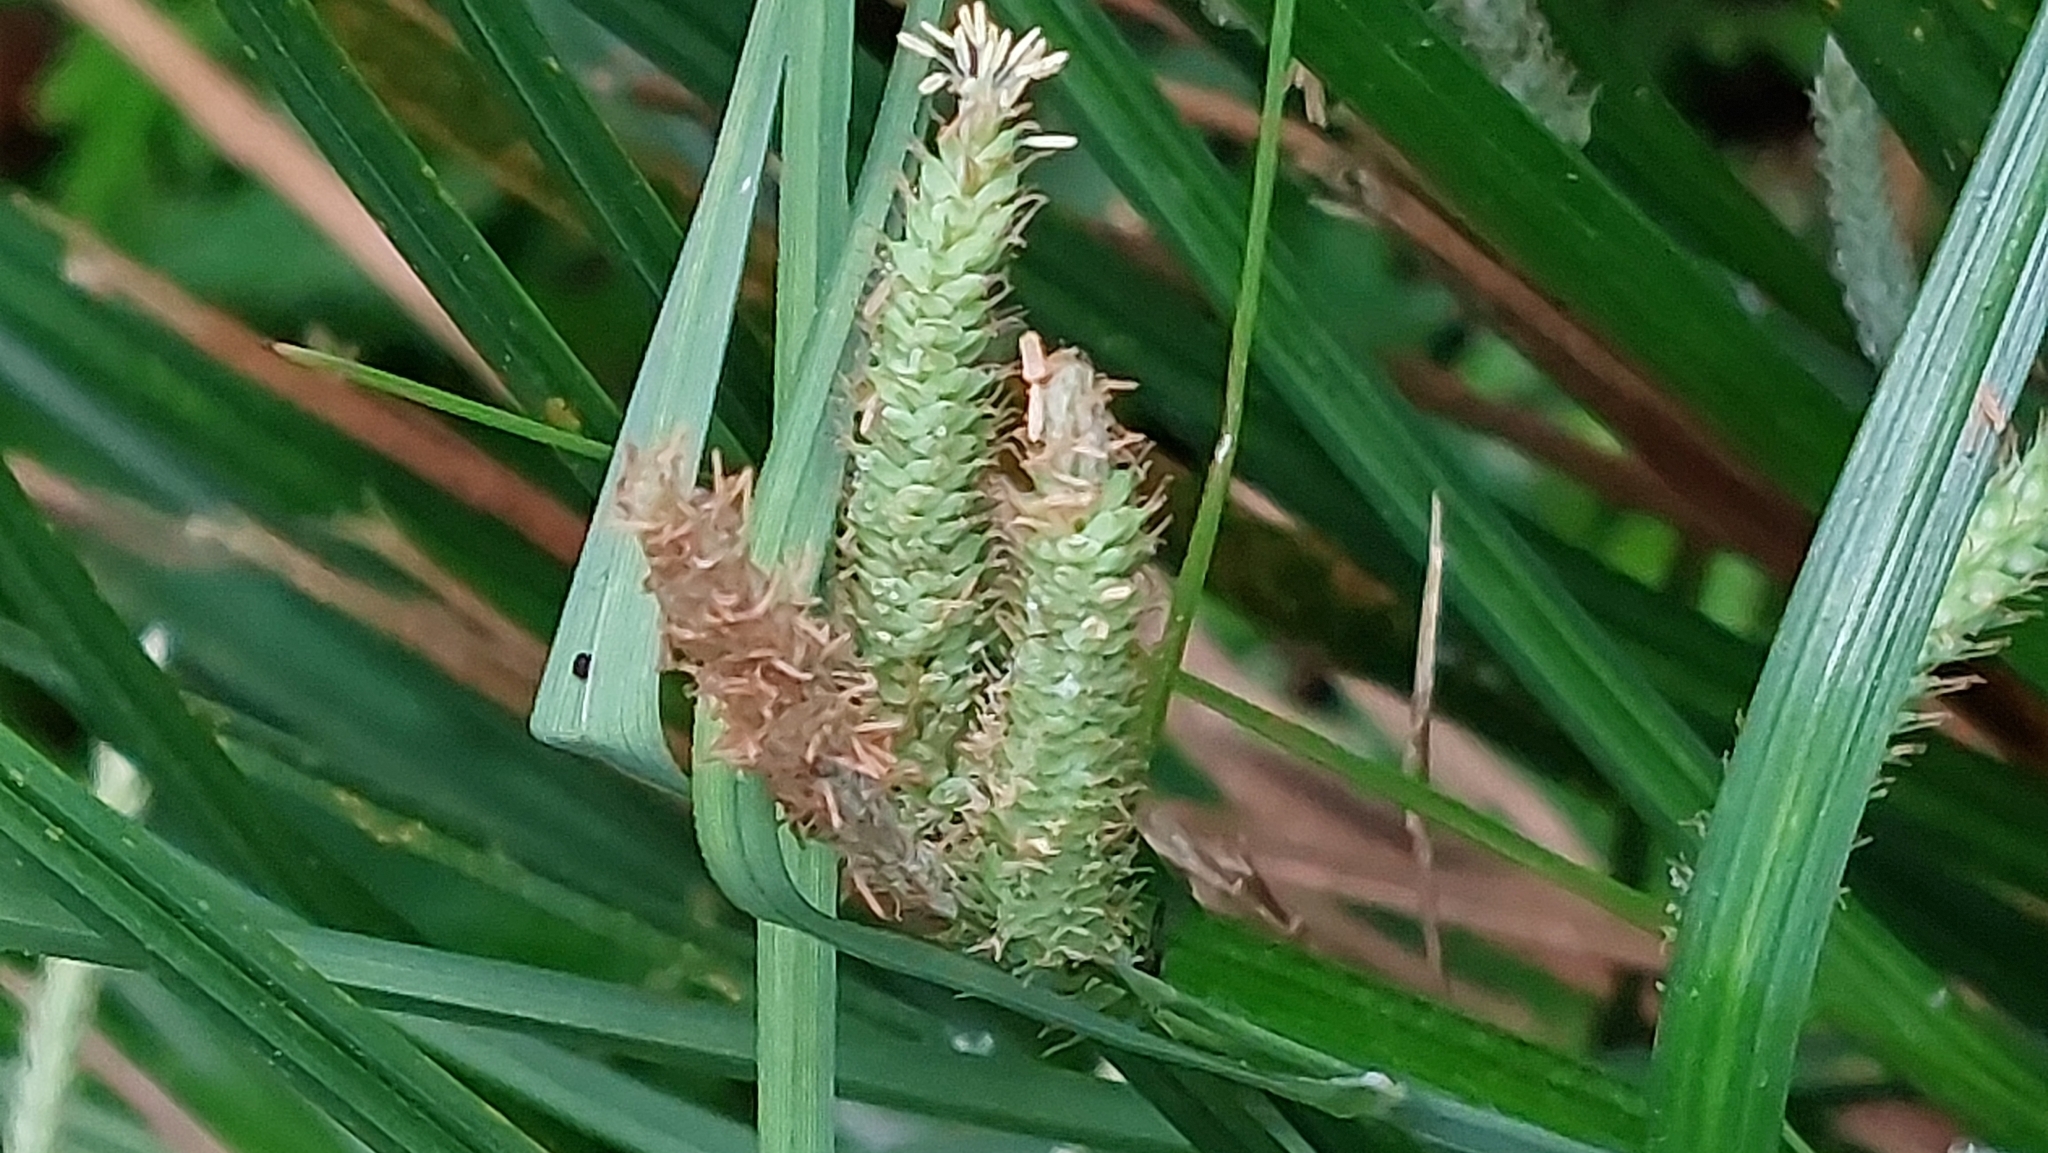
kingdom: Plantae
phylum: Tracheophyta
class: Liliopsida
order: Poales
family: Cyperaceae
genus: Carex
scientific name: Carex phacota
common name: Lakeshore sedge
